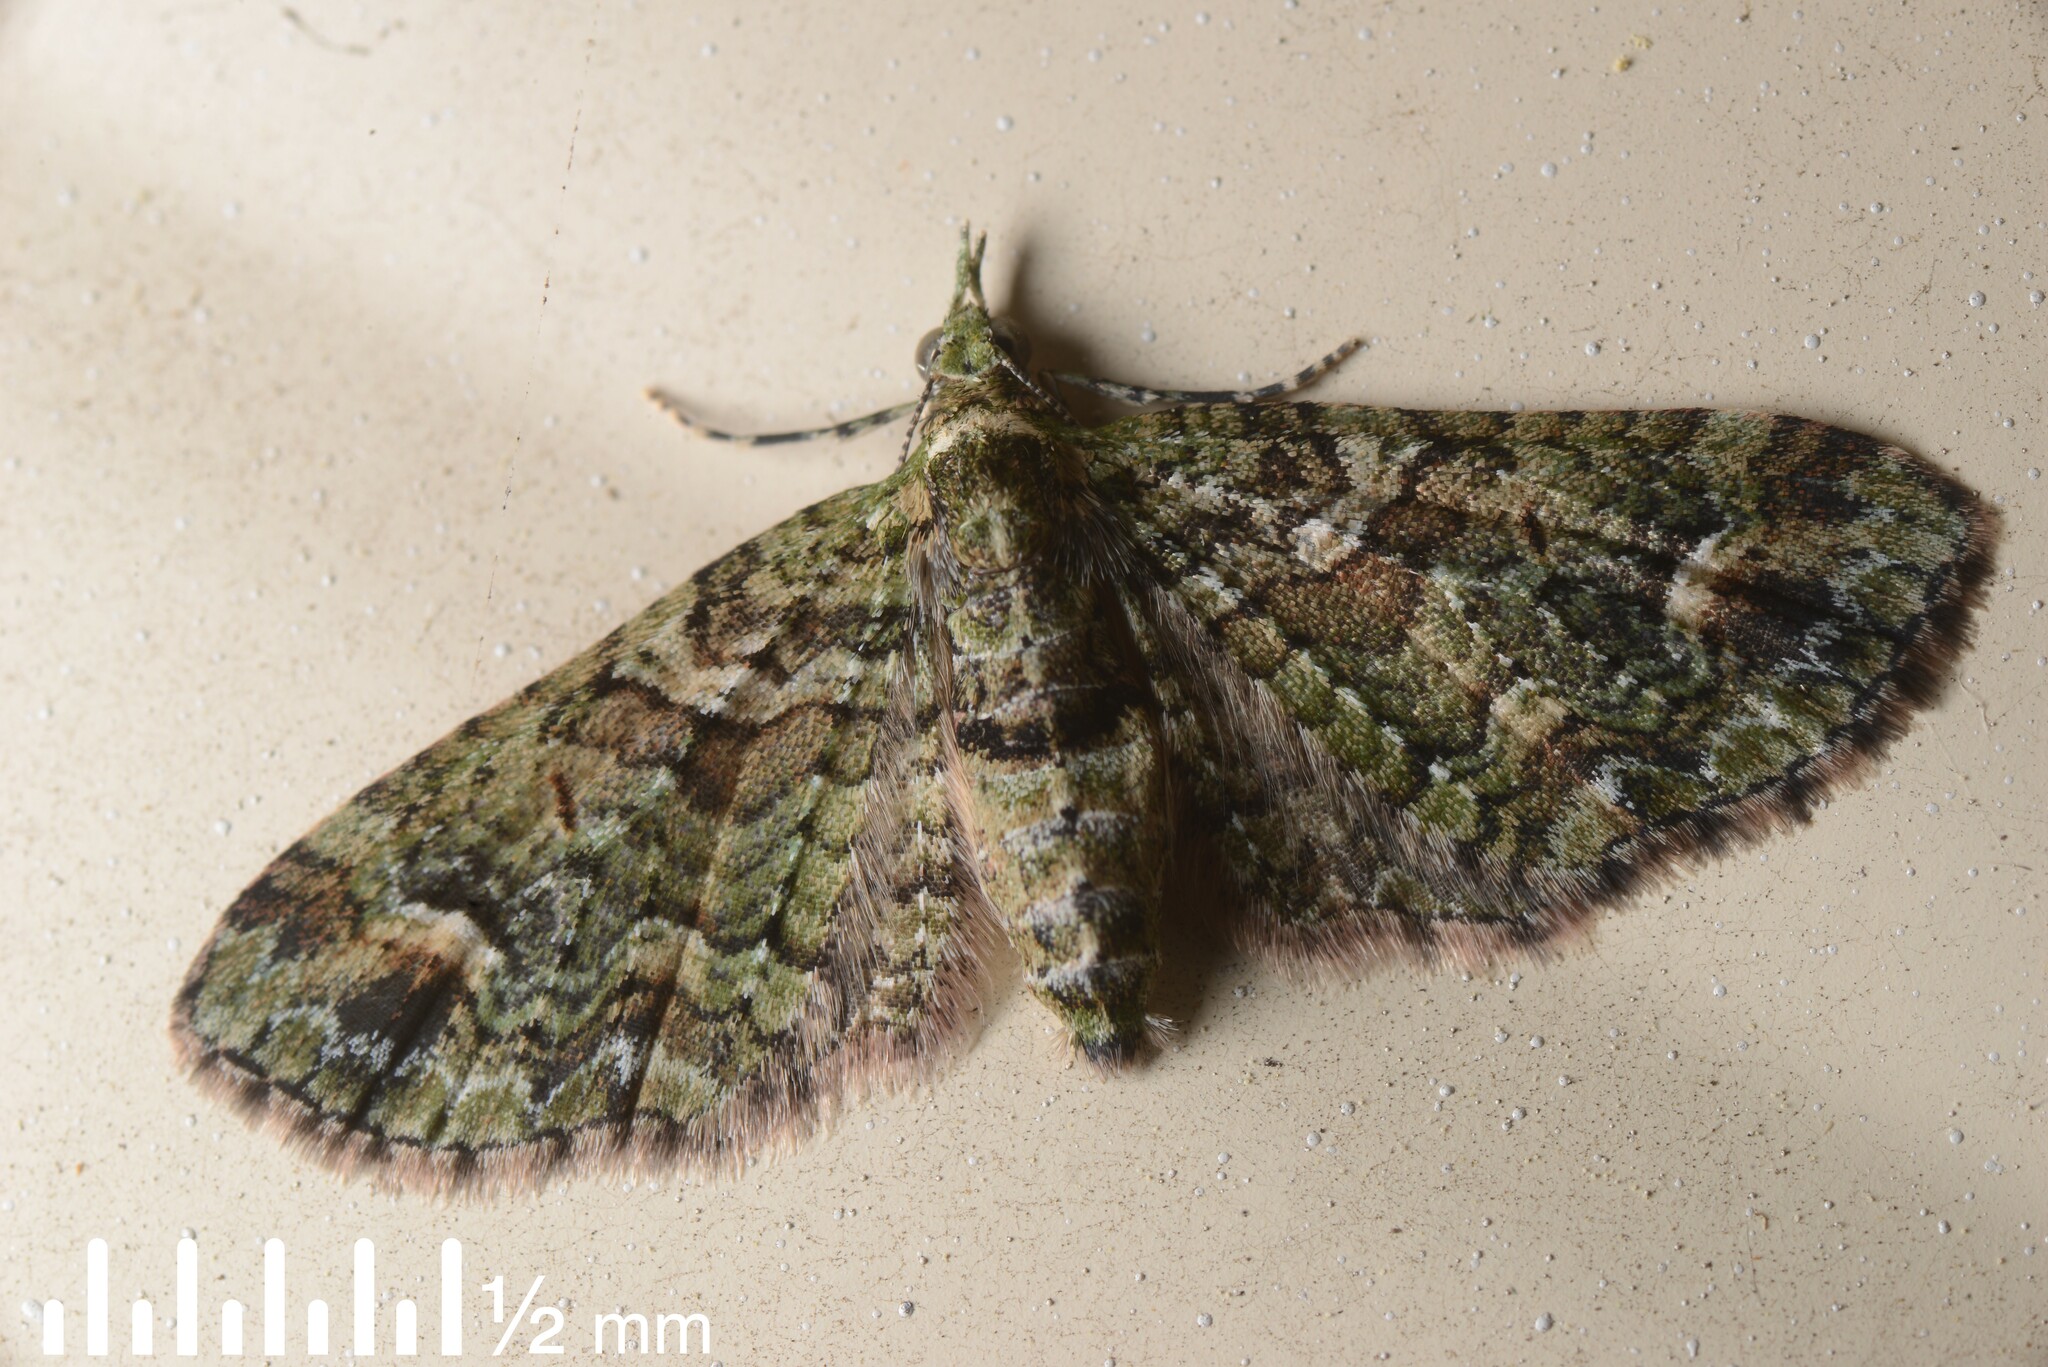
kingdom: Animalia
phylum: Arthropoda
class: Insecta
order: Lepidoptera
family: Geometridae
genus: Idaea
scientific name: Idaea mutanda
